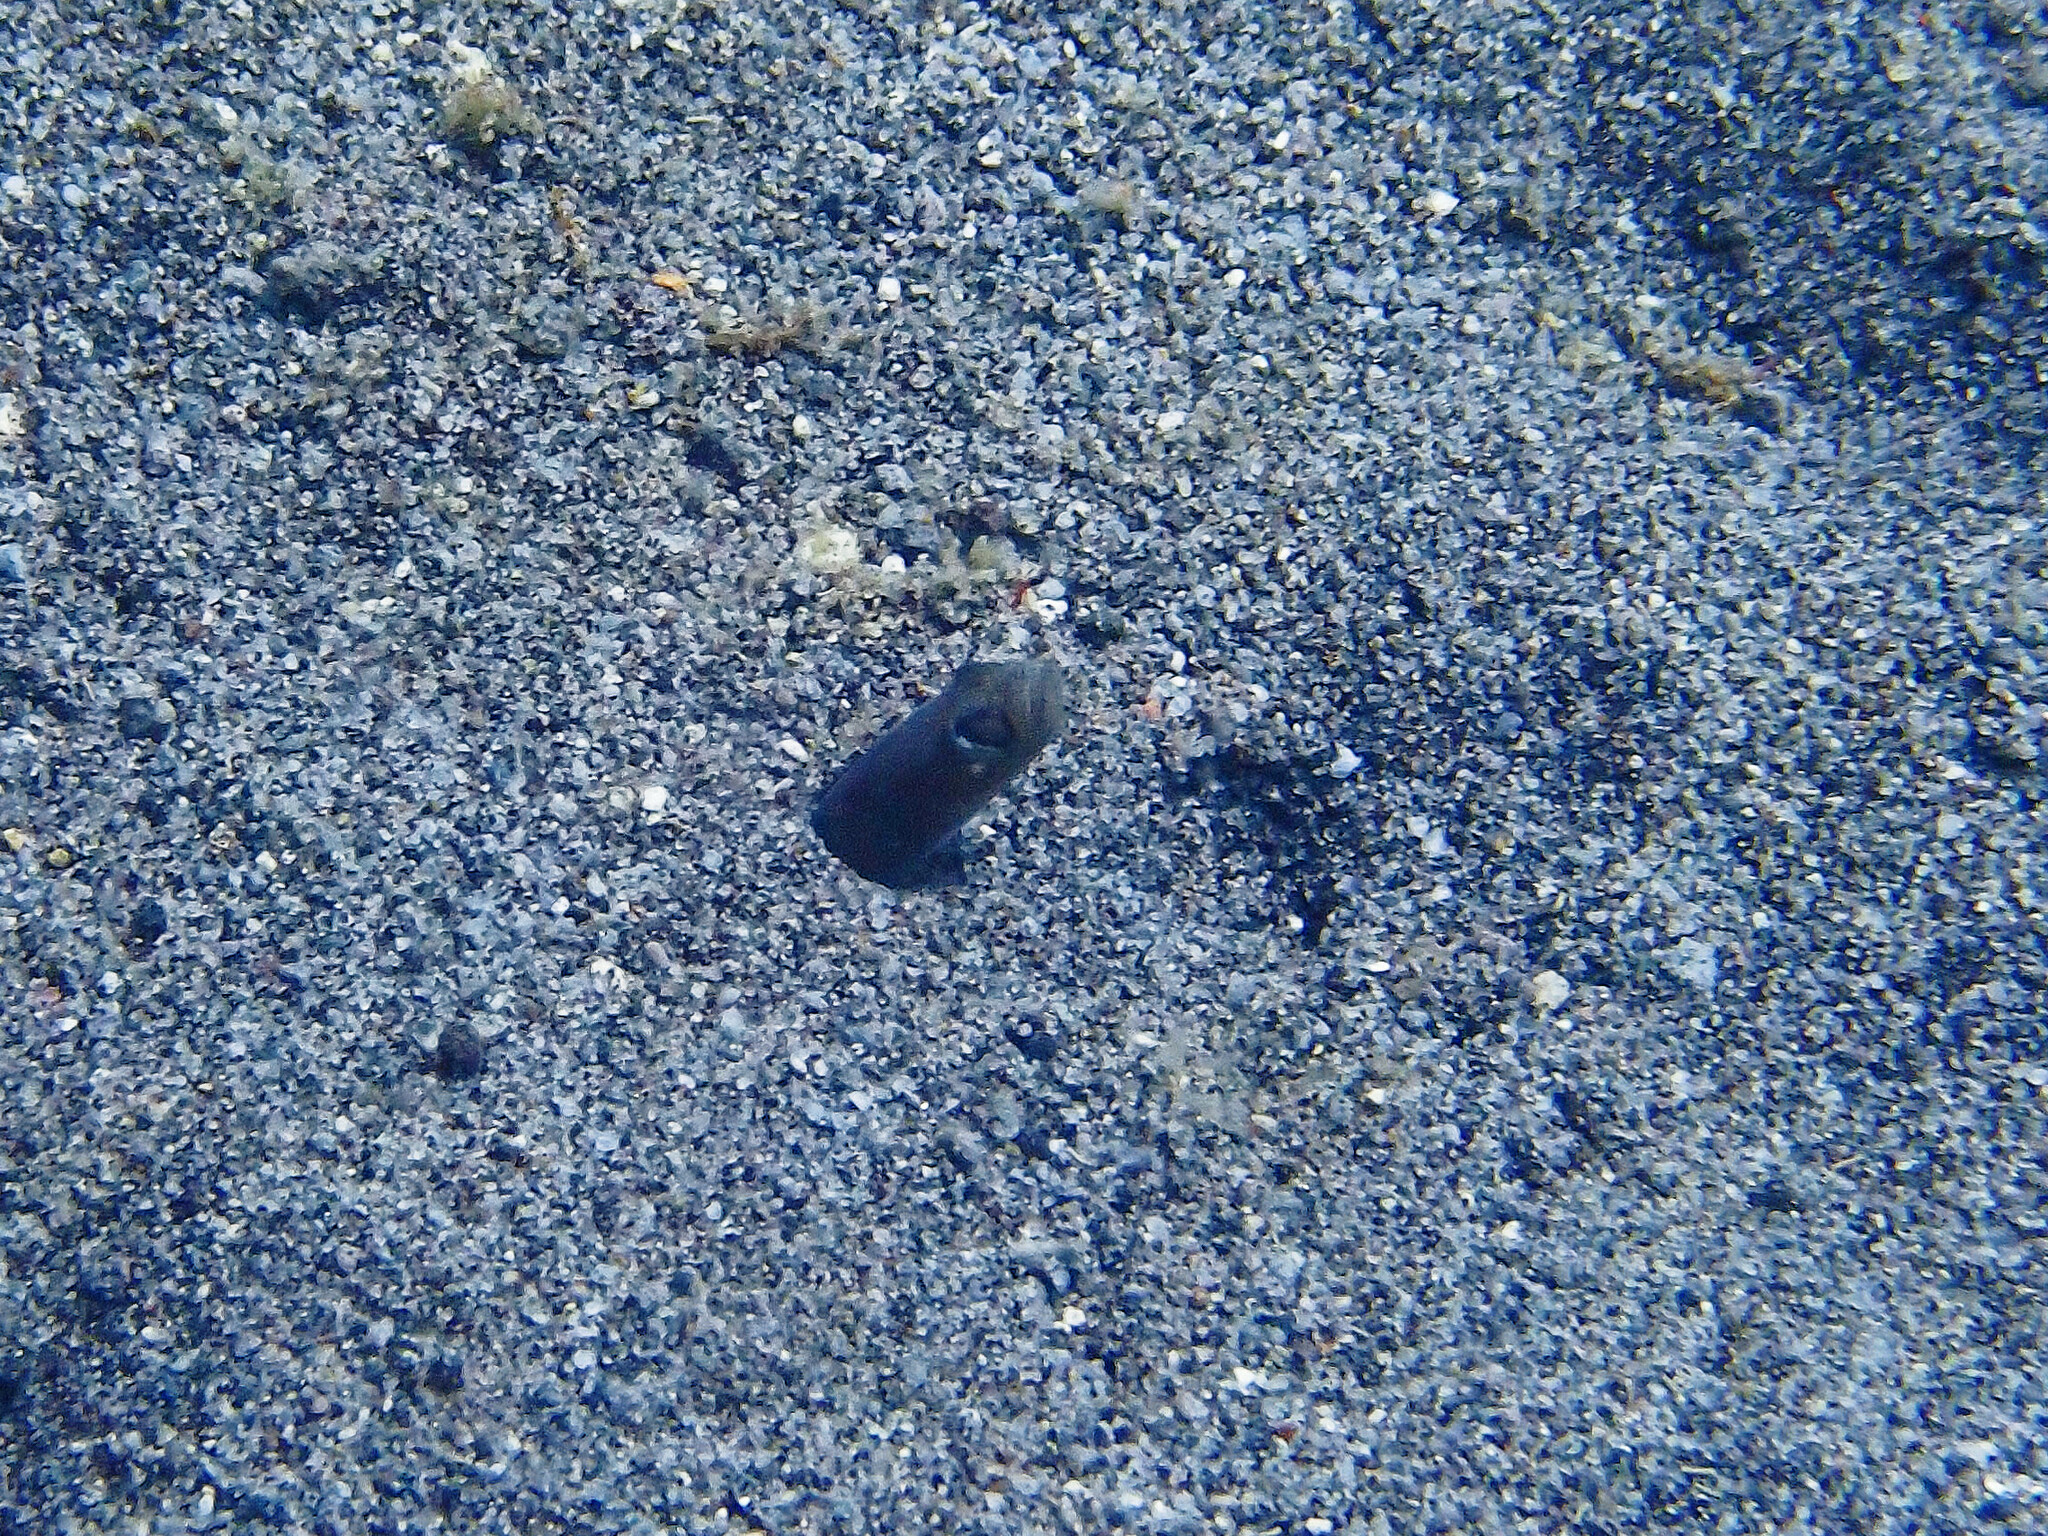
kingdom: Animalia
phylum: Chordata
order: Anguilliformes
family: Congridae
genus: Heteroconger
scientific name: Heteroconger longissimus
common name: Garden eel
